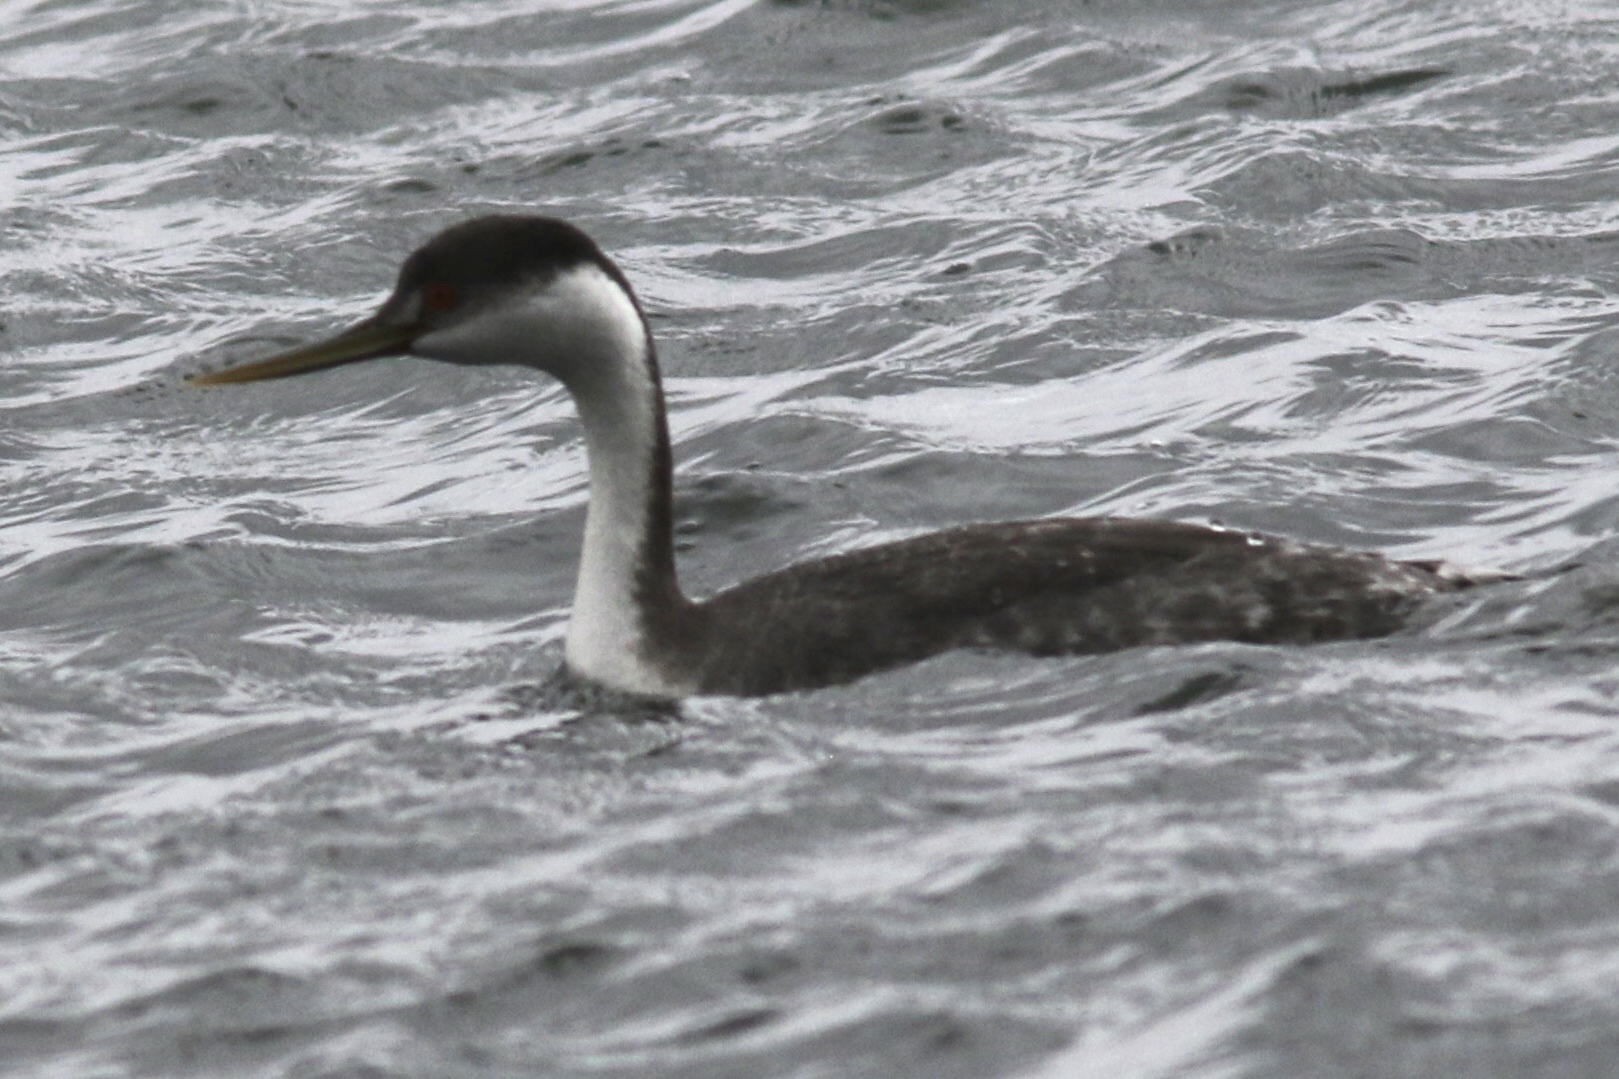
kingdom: Animalia
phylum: Chordata
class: Aves
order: Podicipediformes
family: Podicipedidae
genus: Aechmophorus
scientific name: Aechmophorus occidentalis
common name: Western grebe
